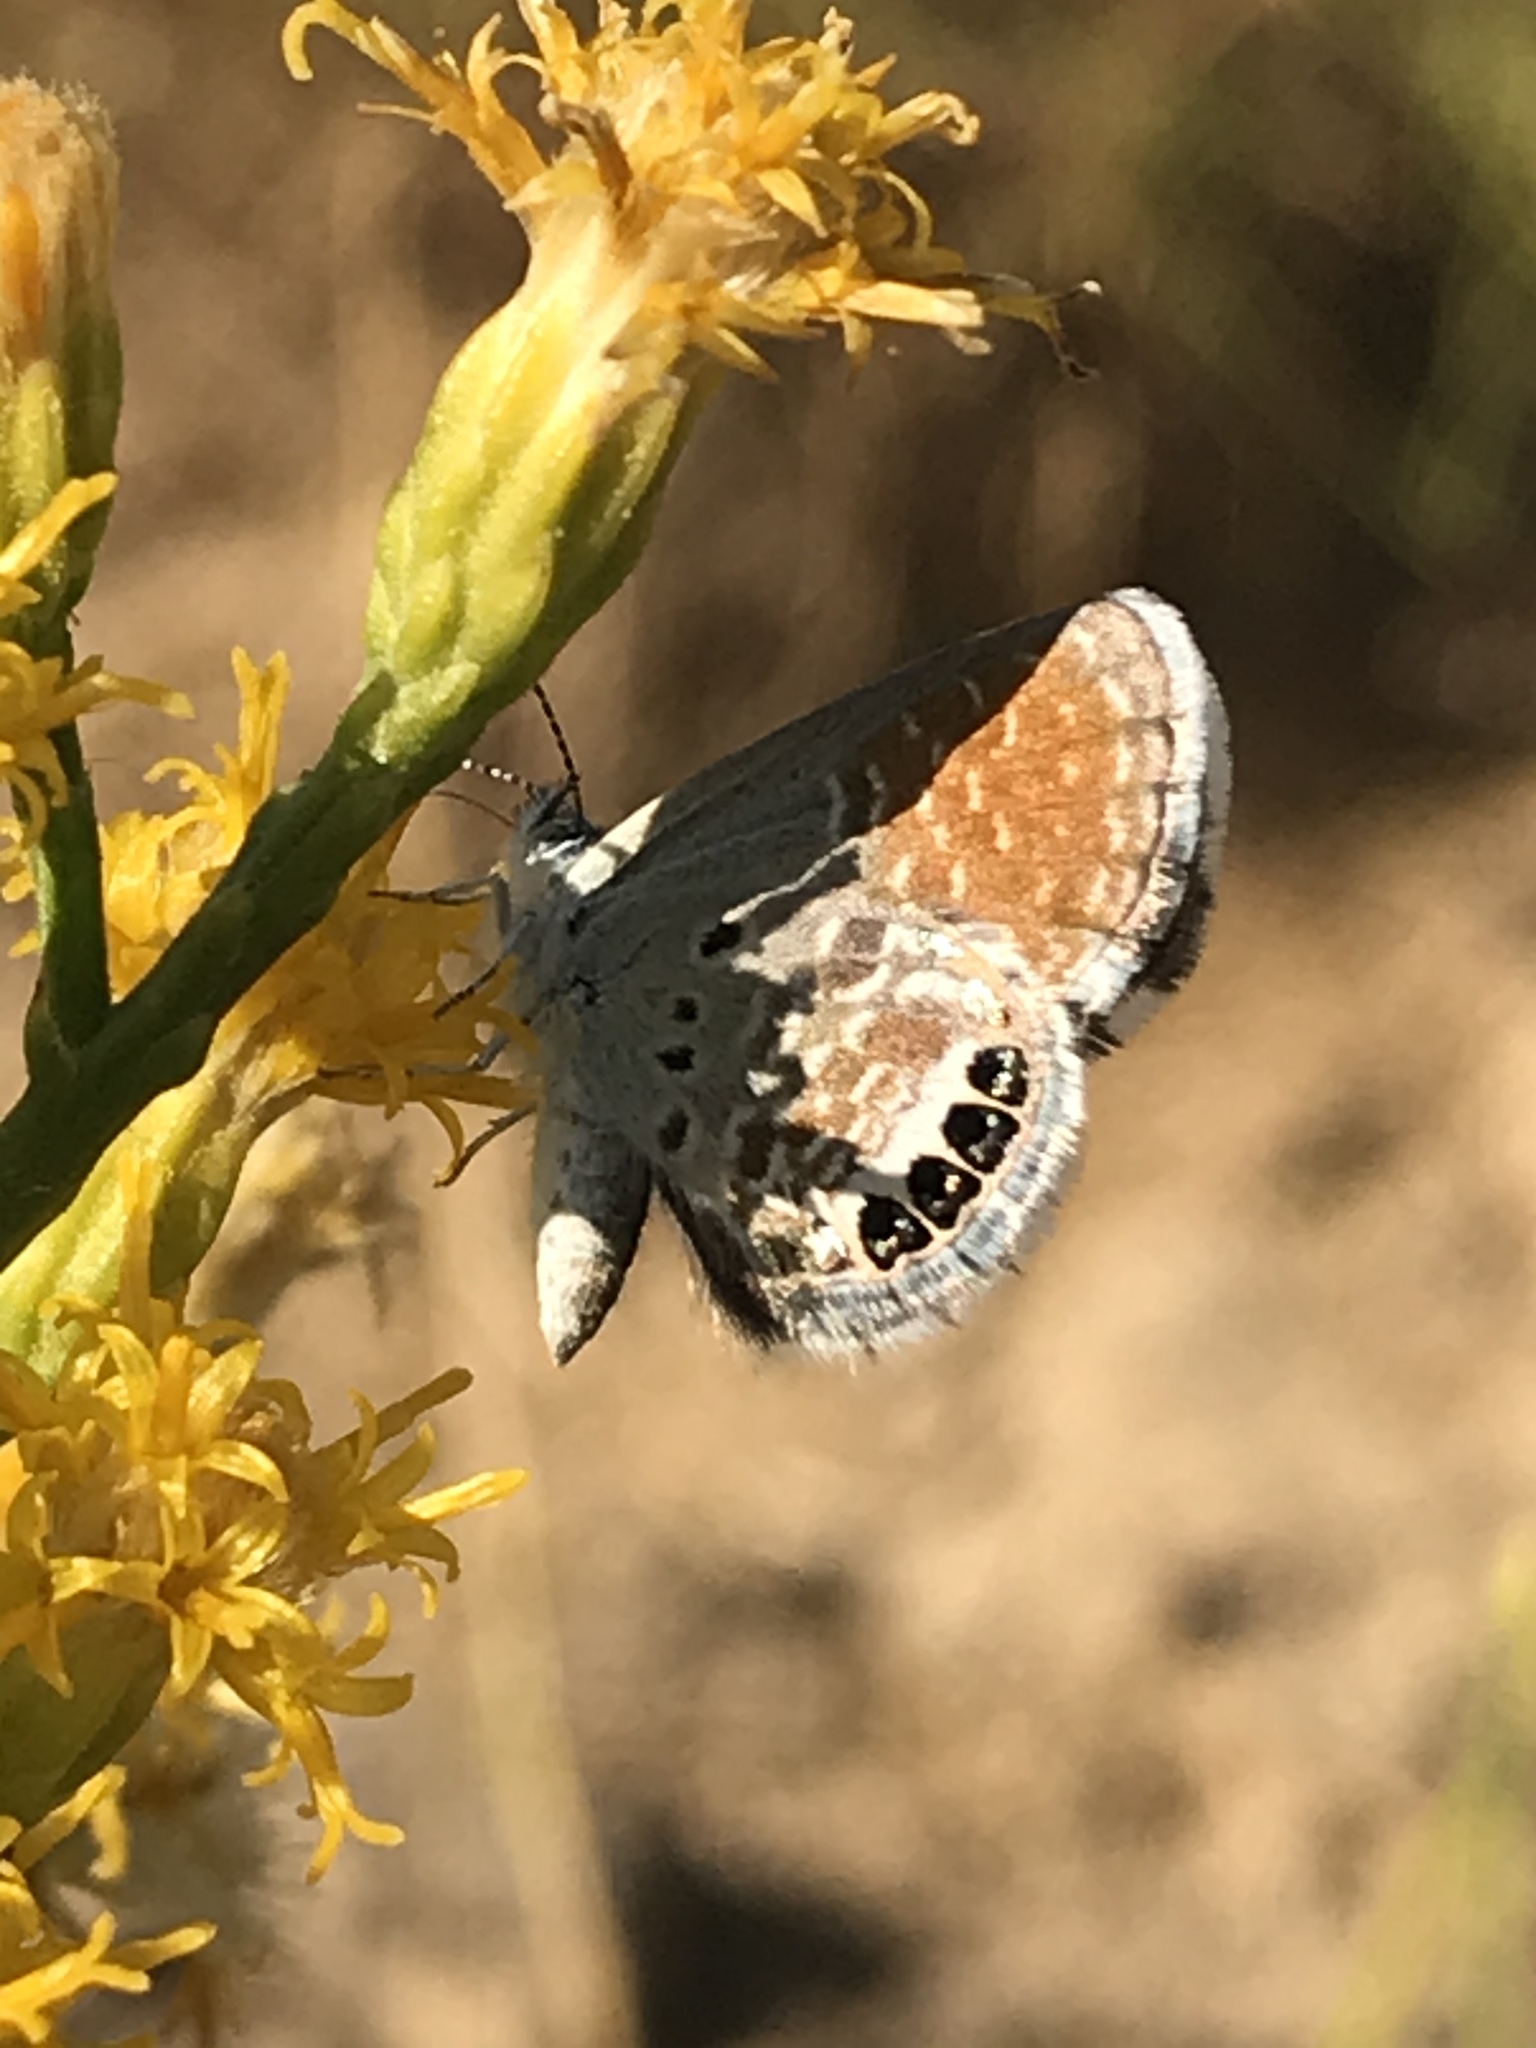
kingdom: Animalia
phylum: Arthropoda
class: Insecta
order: Lepidoptera
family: Lycaenidae
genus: Brephidium
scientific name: Brephidium exilis
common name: Pygmy blue
